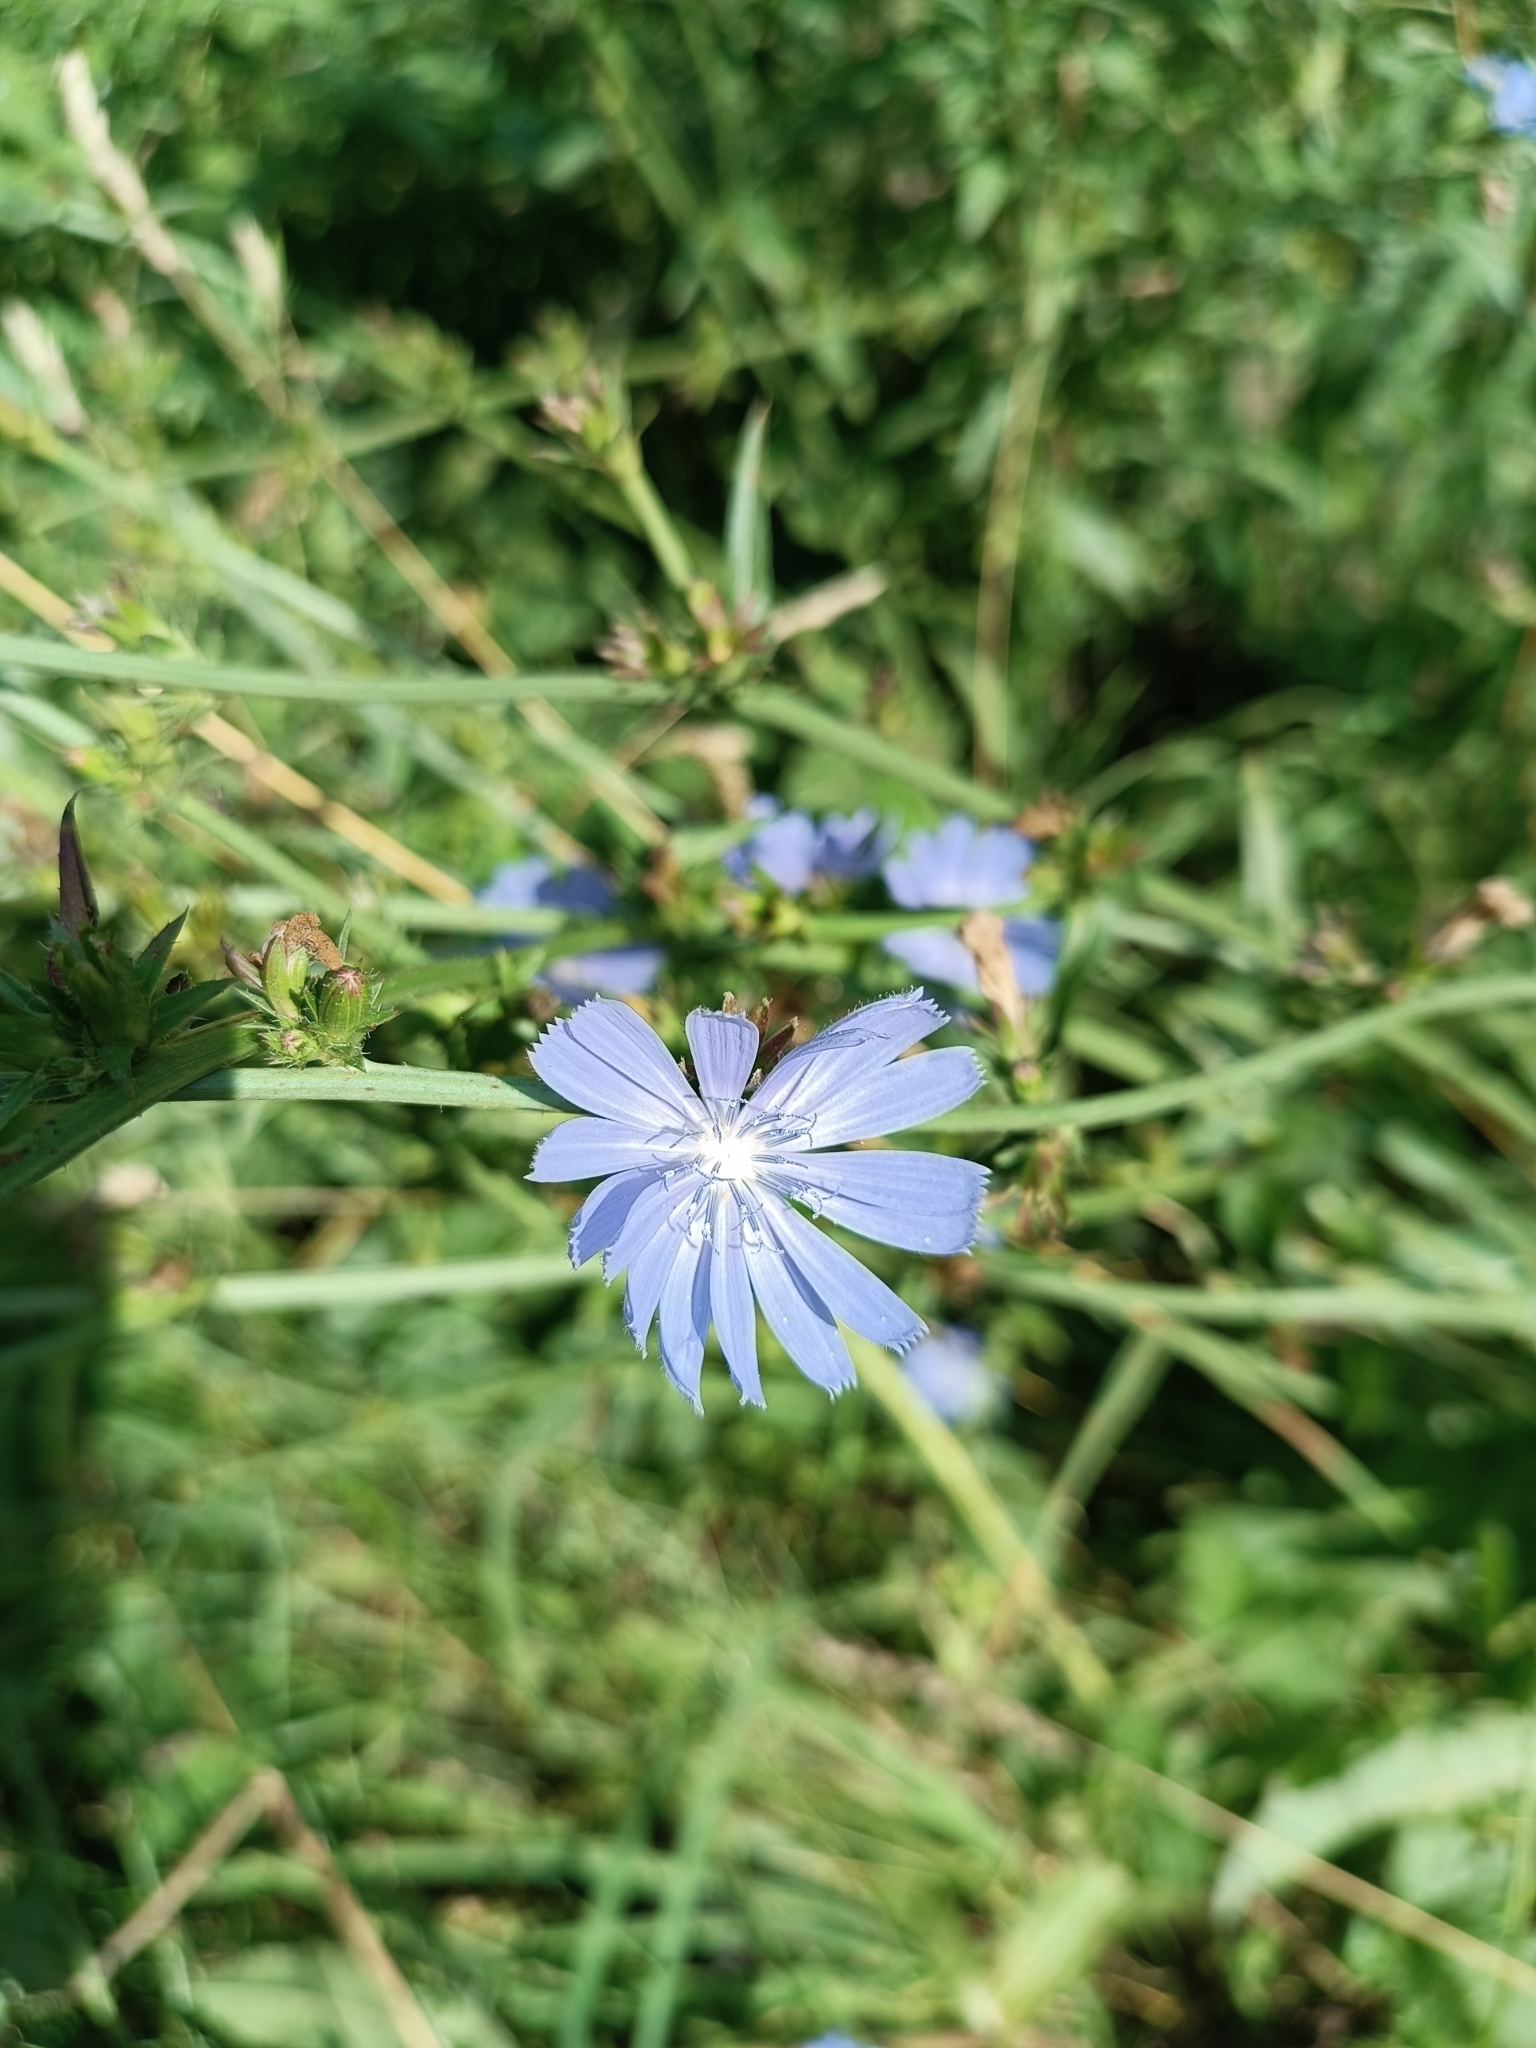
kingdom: Plantae
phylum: Tracheophyta
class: Magnoliopsida
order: Asterales
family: Asteraceae
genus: Cichorium
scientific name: Cichorium intybus
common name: Chicory
